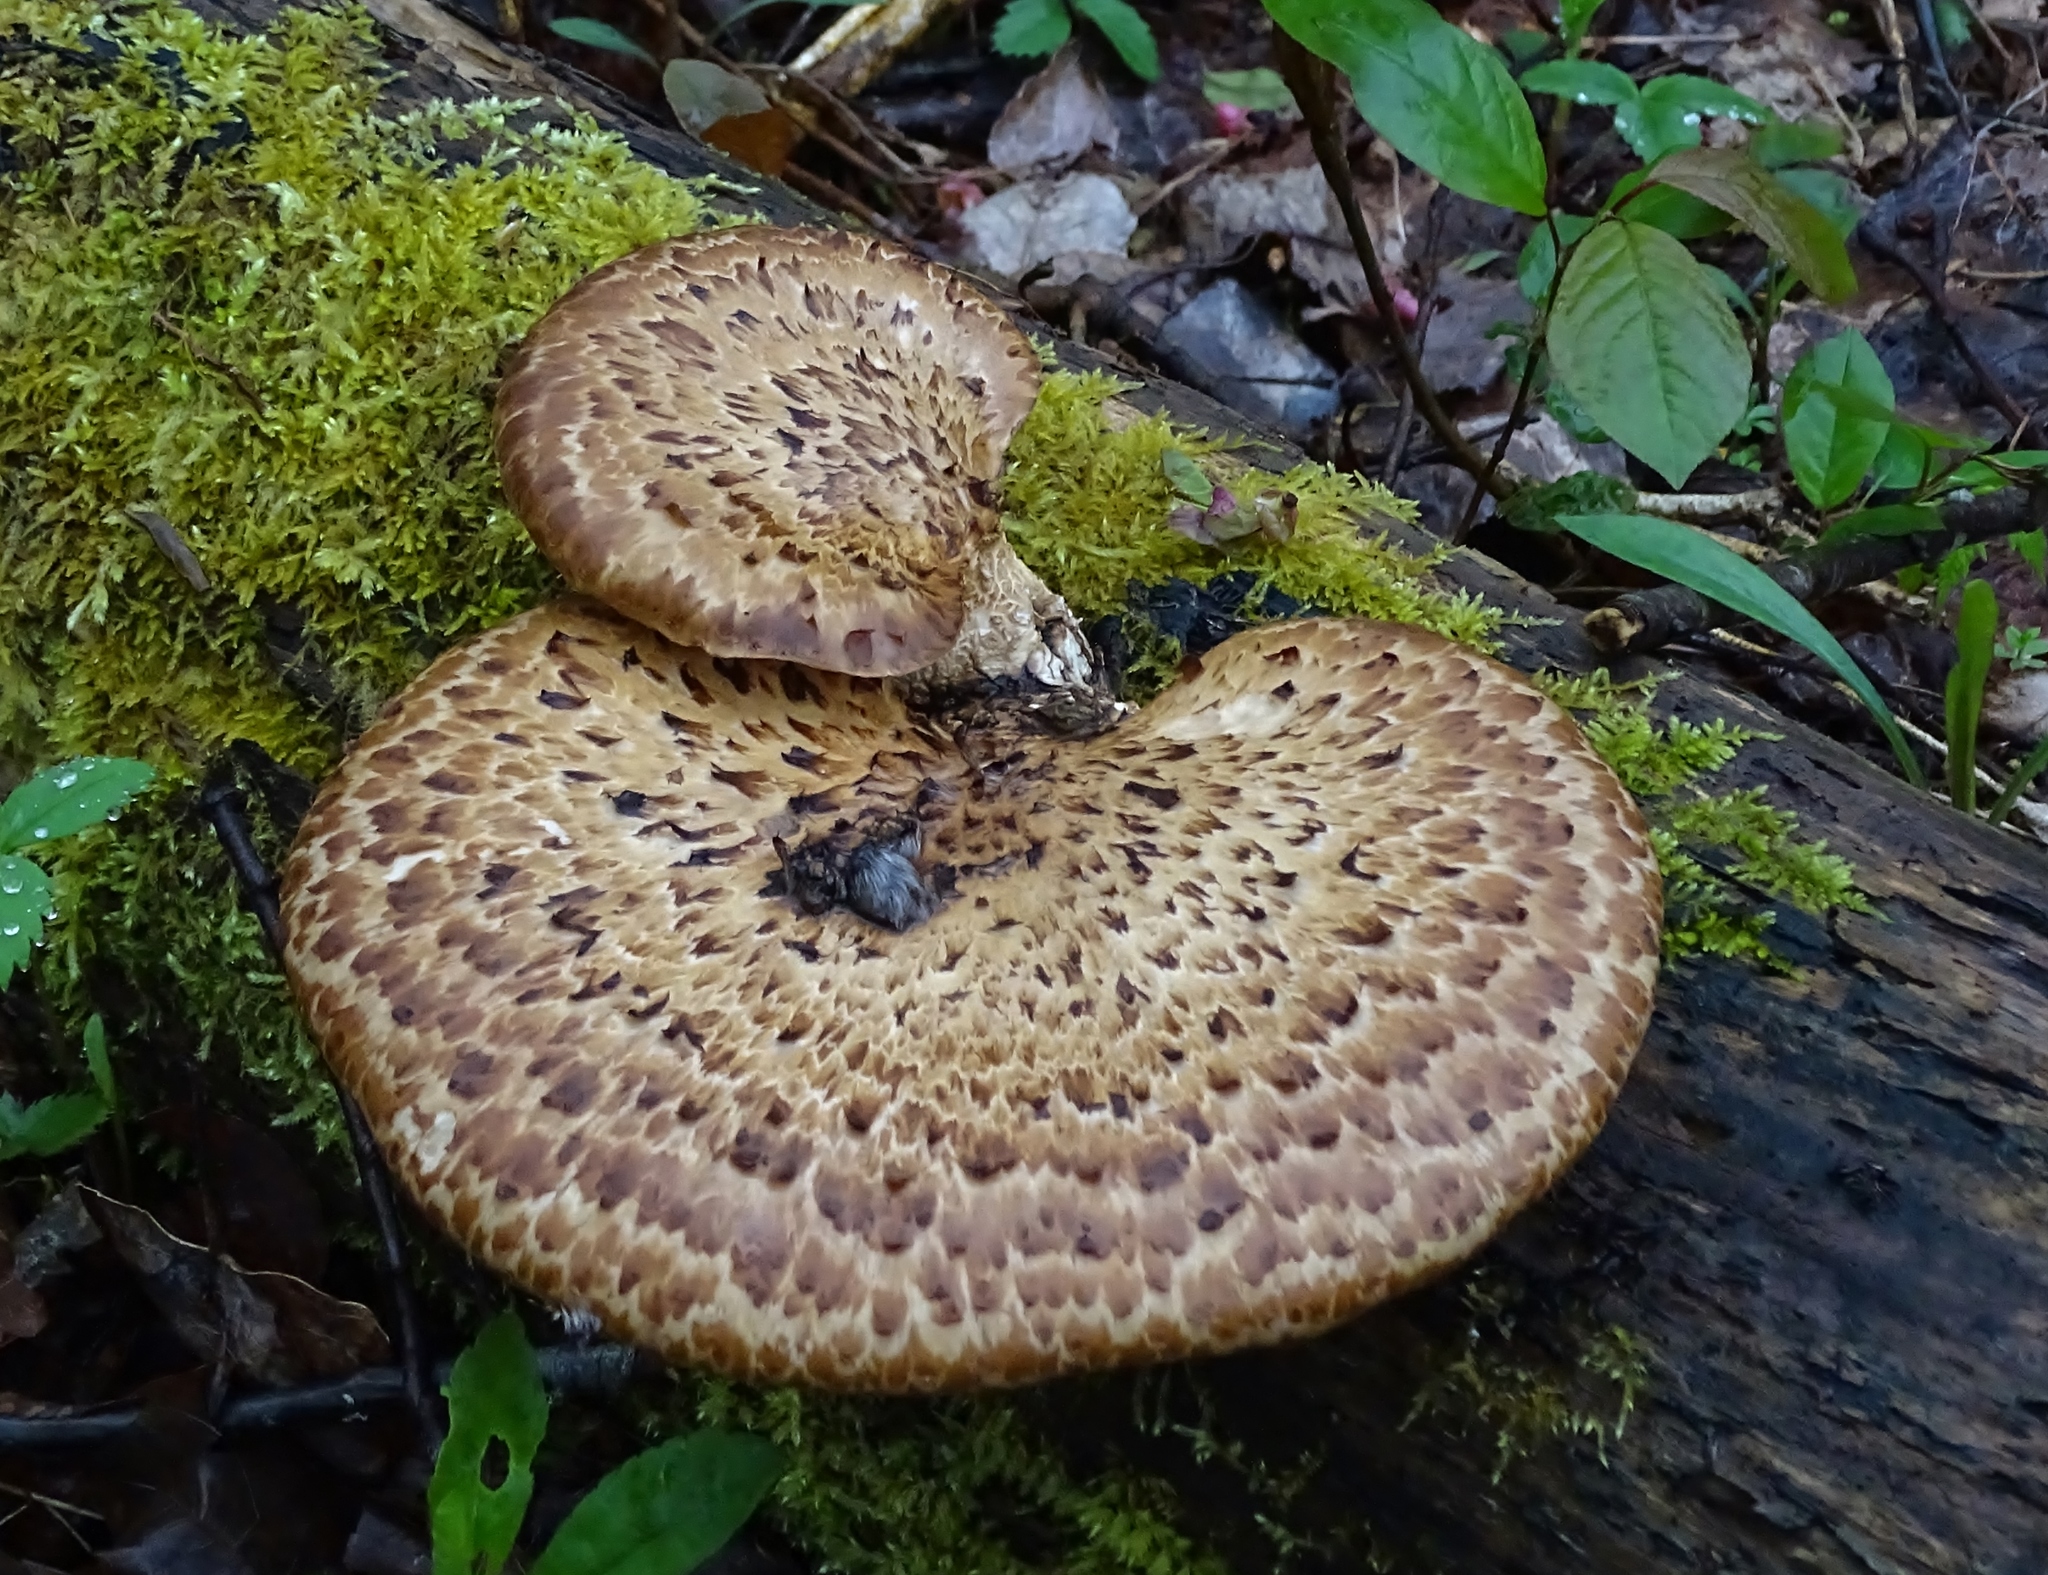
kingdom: Fungi
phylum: Basidiomycota
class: Agaricomycetes
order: Polyporales
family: Polyporaceae
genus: Cerioporus
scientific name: Cerioporus squamosus
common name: Dryad's saddle
